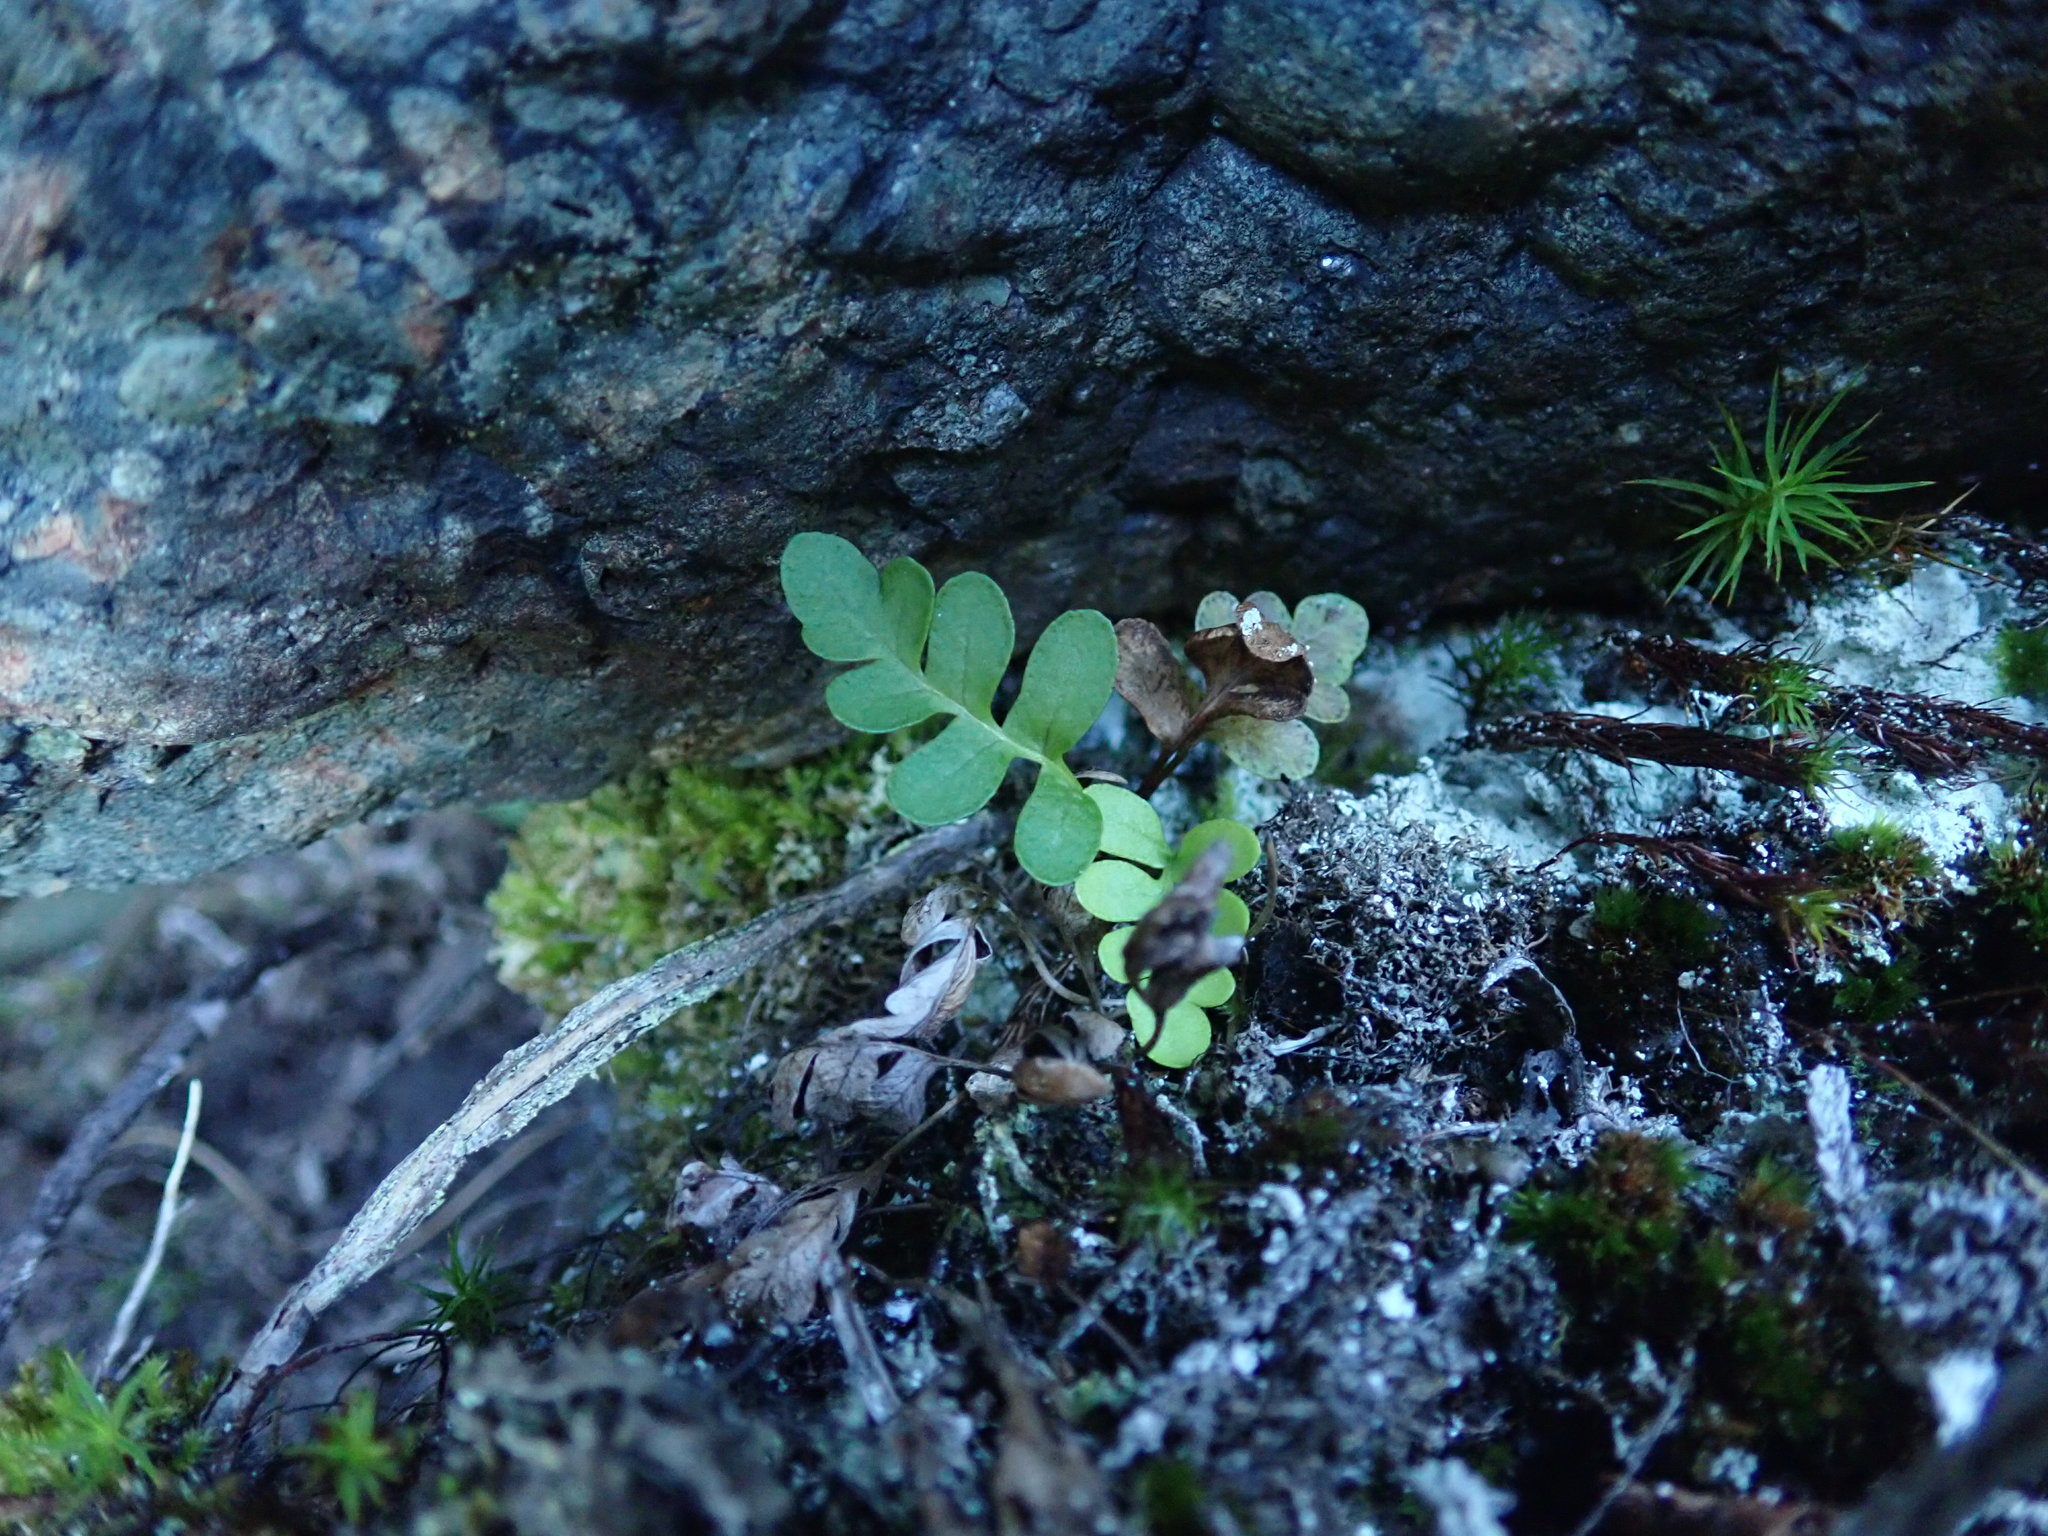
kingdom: Plantae
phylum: Tracheophyta
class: Polypodiopsida
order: Polypodiales
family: Polypodiaceae
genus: Polypodium
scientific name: Polypodium amorphum
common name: Pacific polypody
